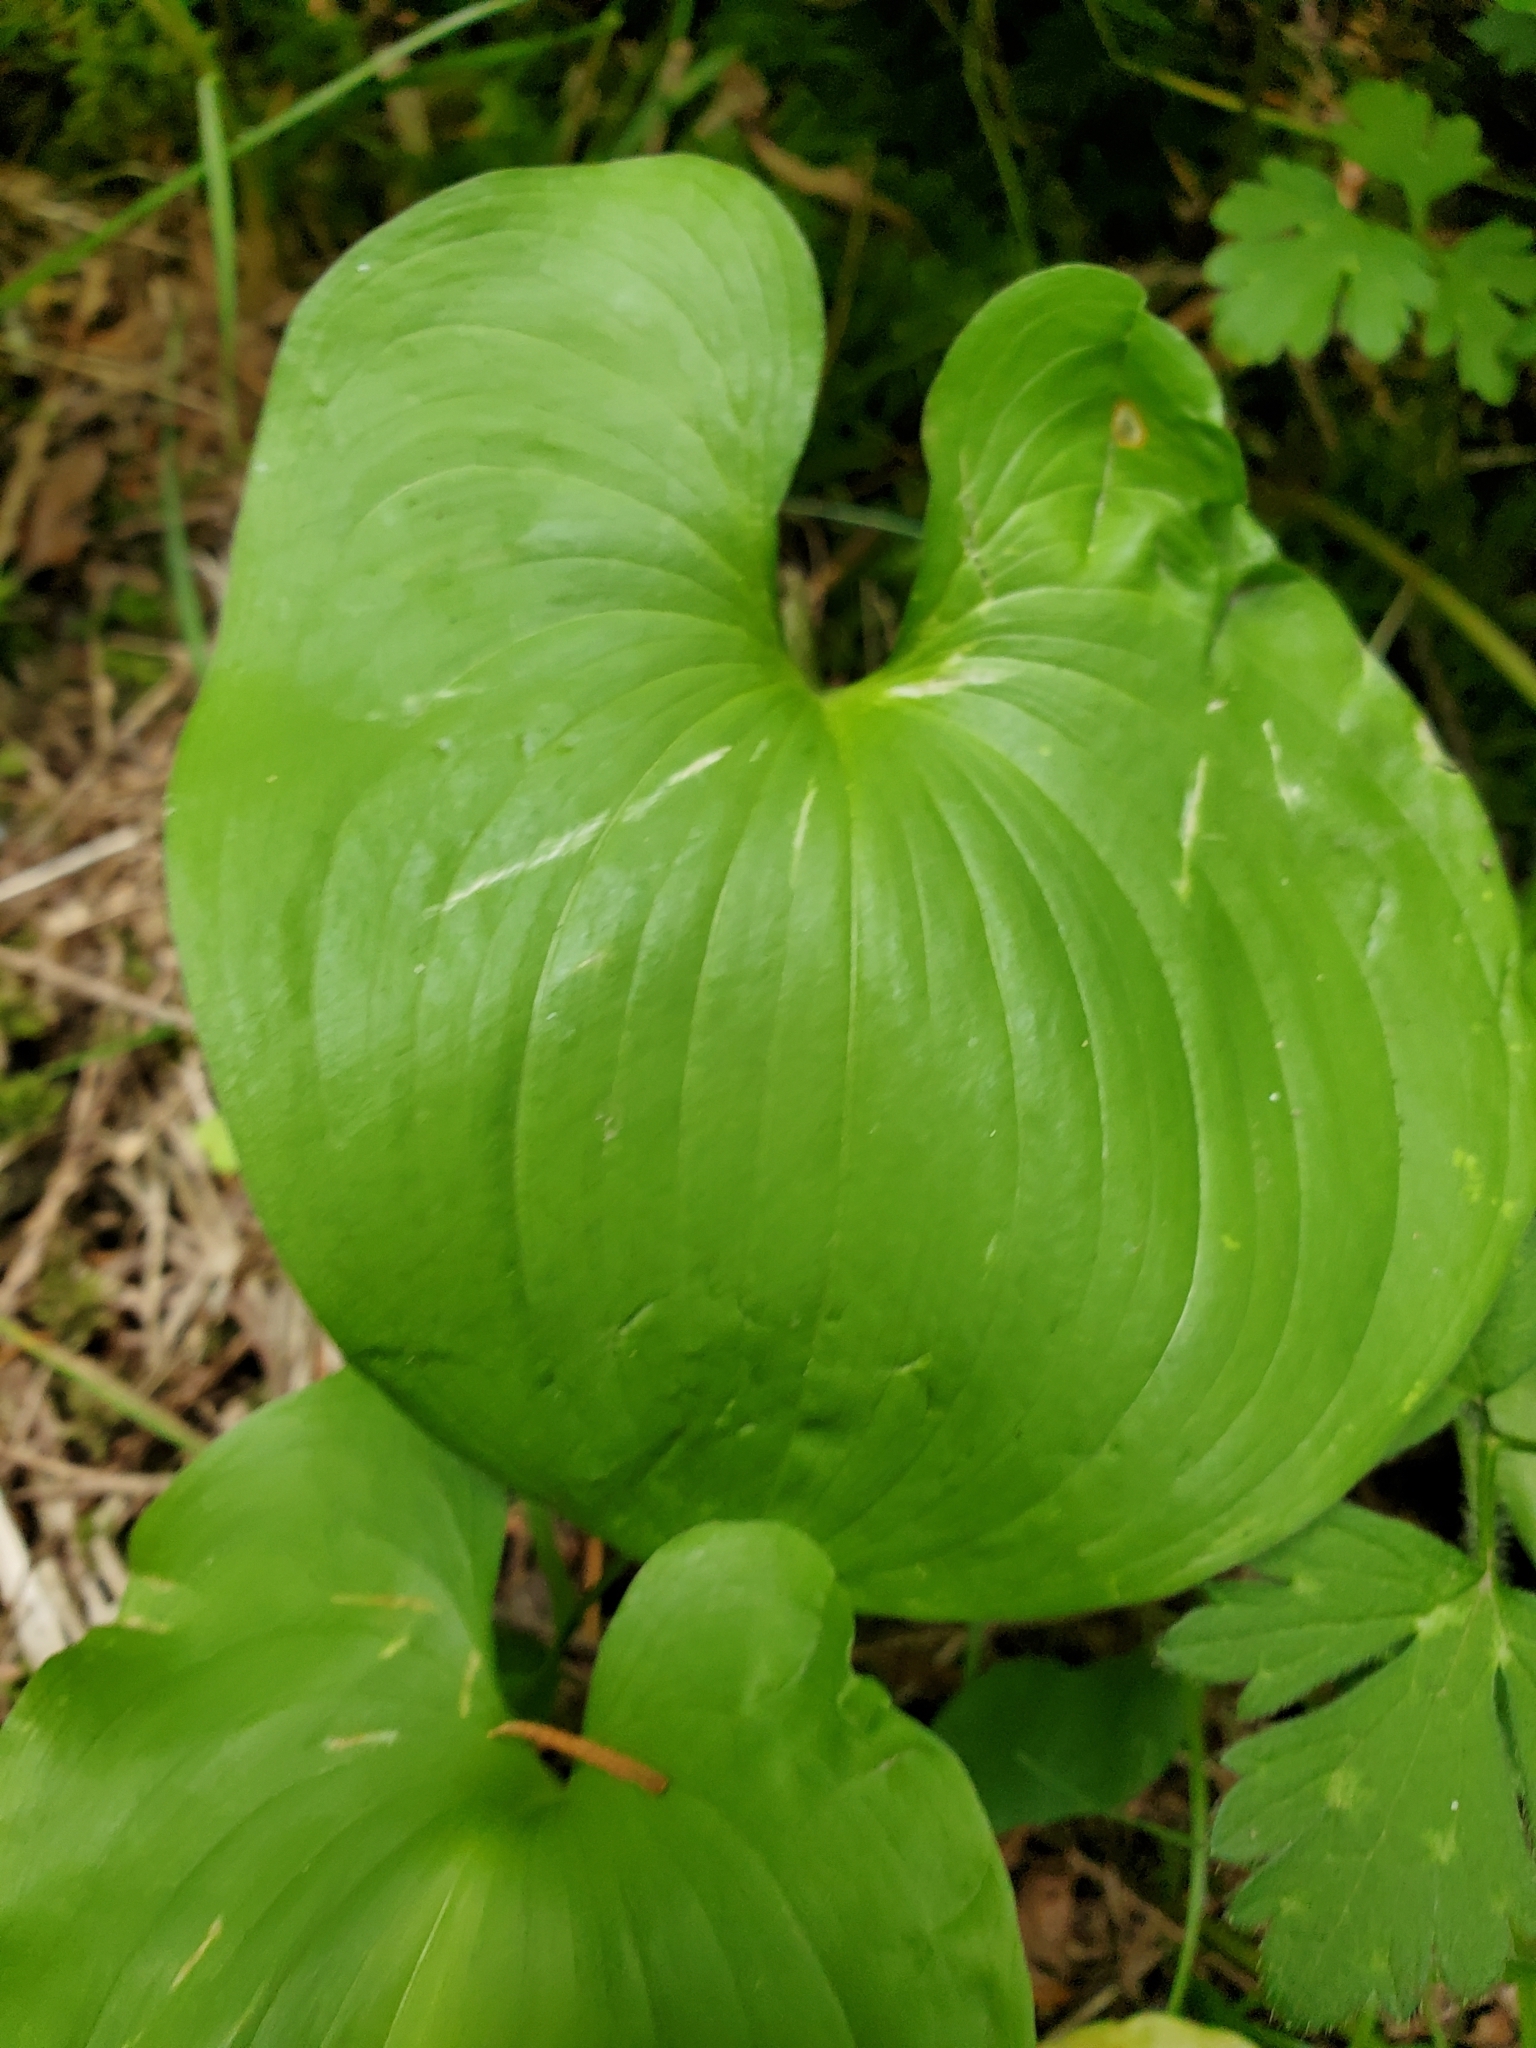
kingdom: Plantae
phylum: Tracheophyta
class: Liliopsida
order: Asparagales
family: Asparagaceae
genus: Maianthemum
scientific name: Maianthemum dilatatum
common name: False lily-of-the-valley
